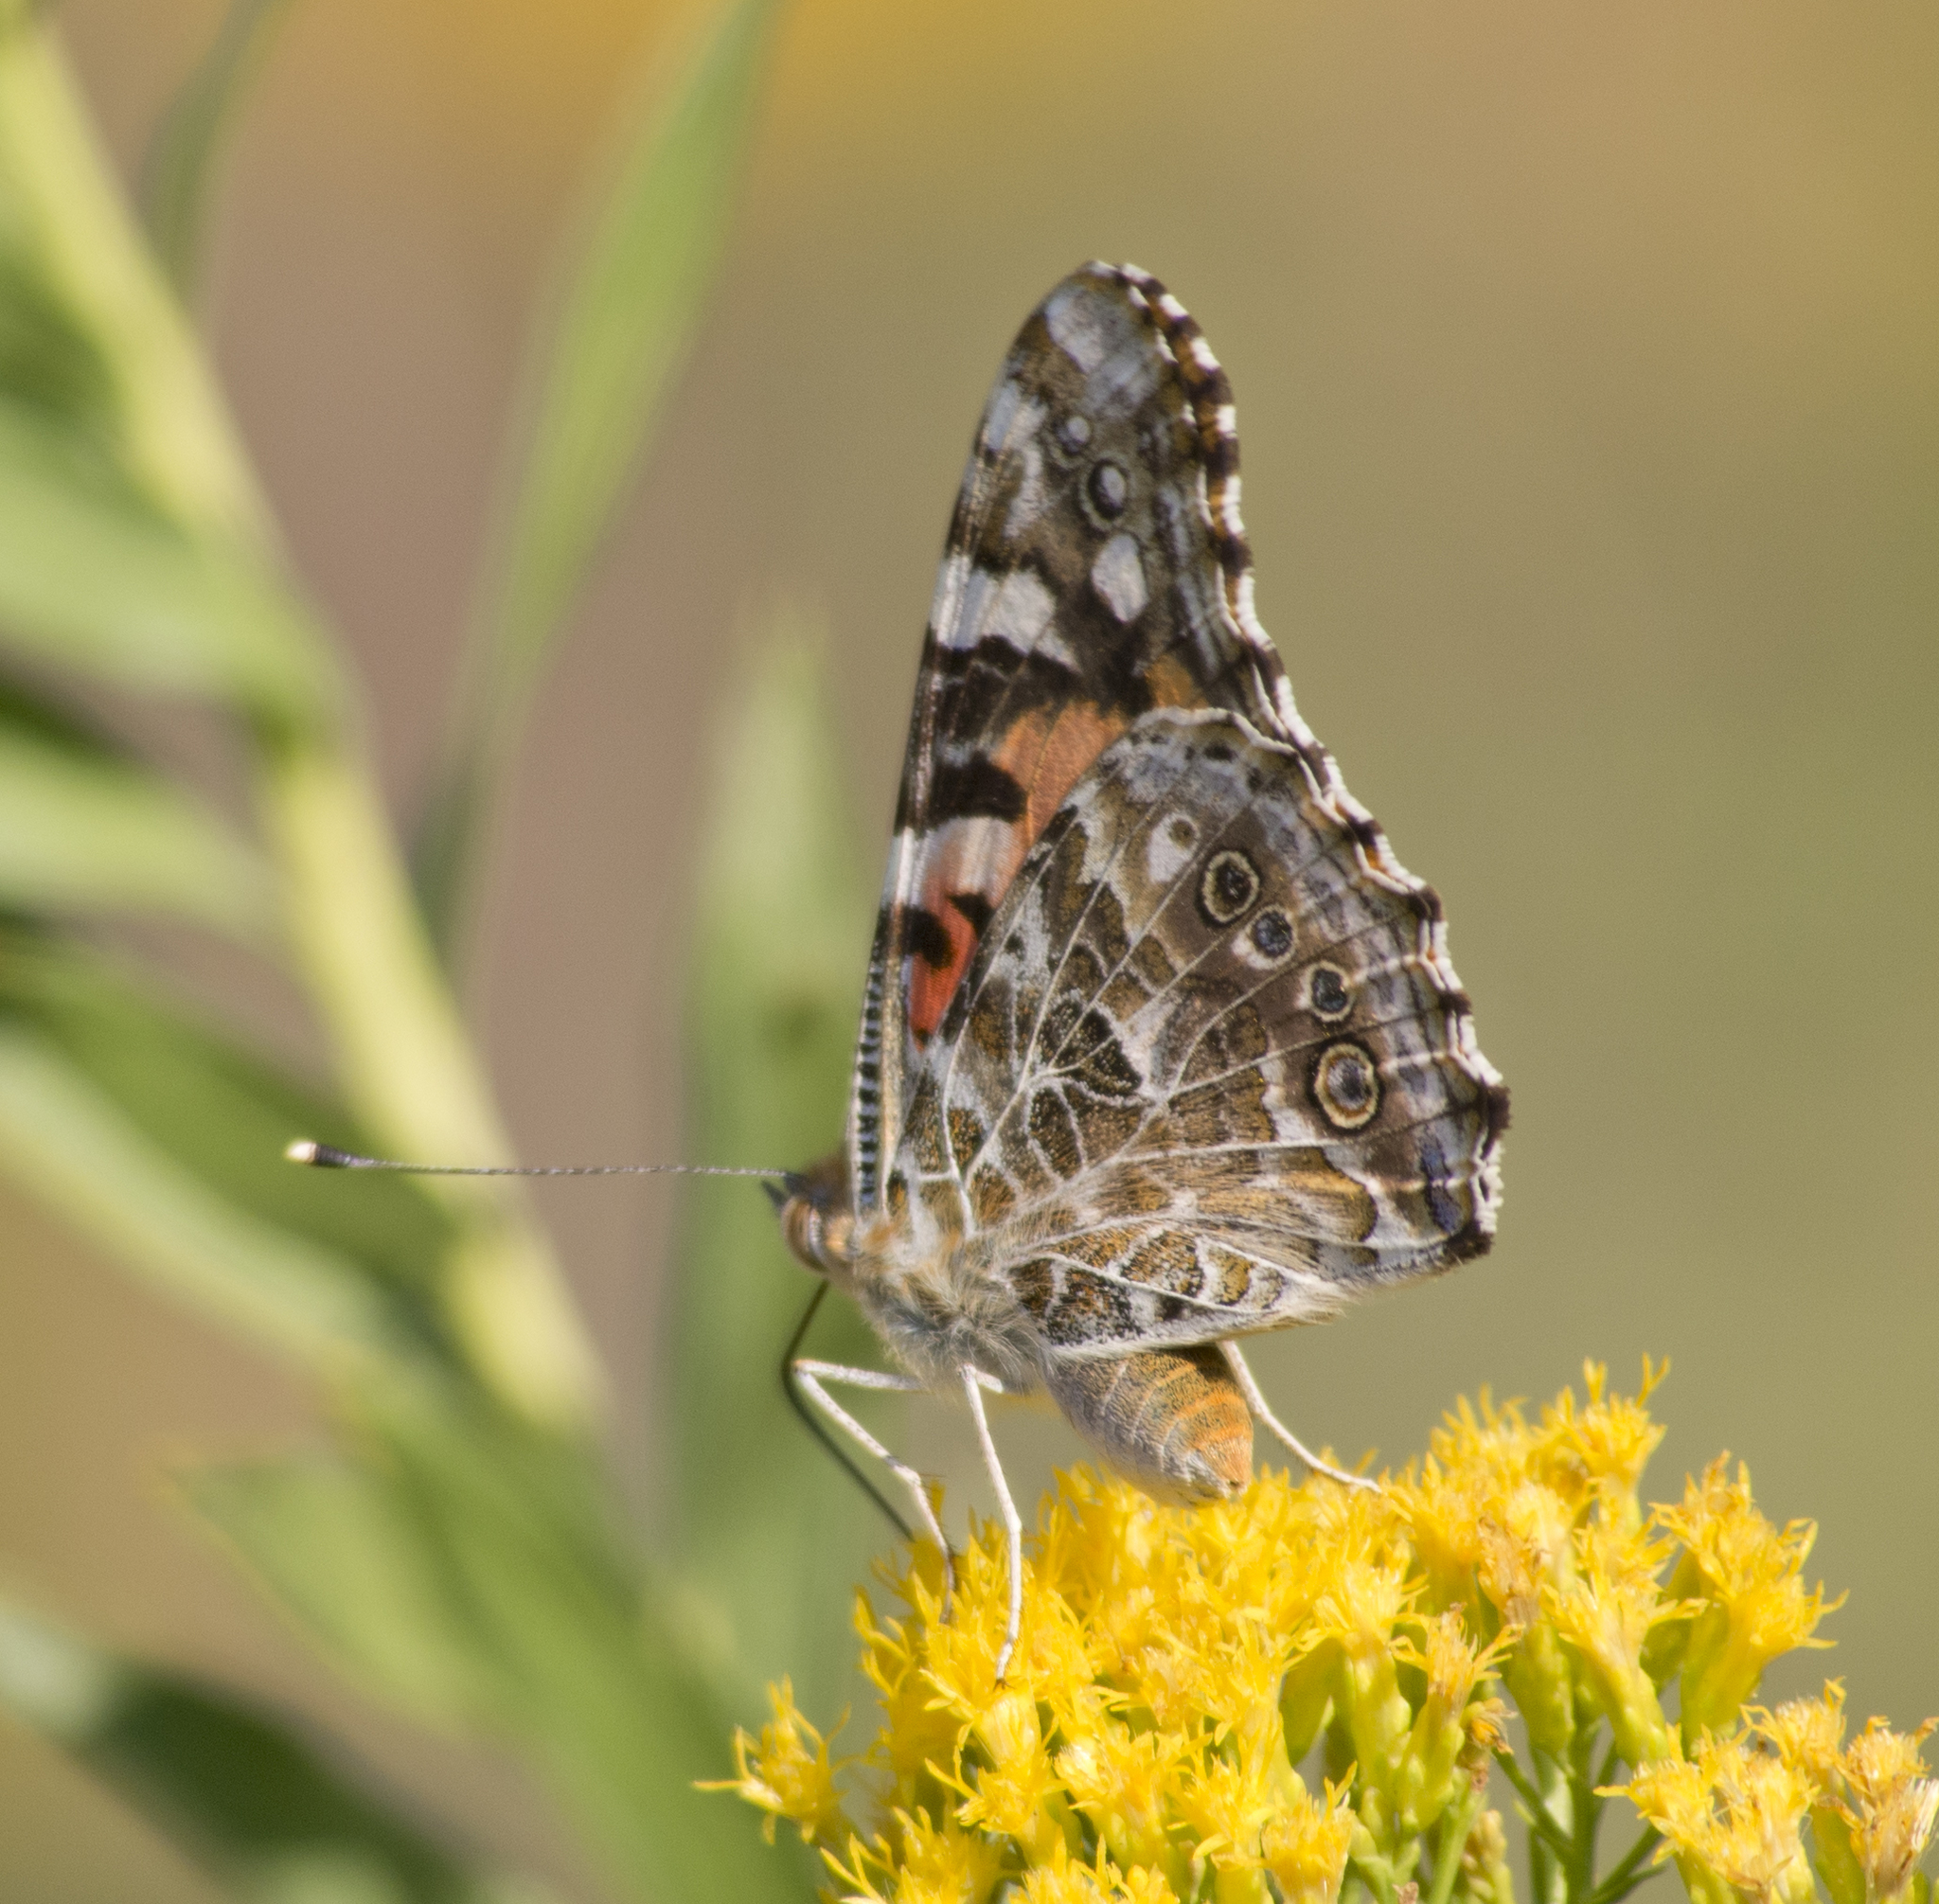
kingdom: Animalia
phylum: Arthropoda
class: Insecta
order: Lepidoptera
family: Nymphalidae
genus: Vanessa
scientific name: Vanessa cardui
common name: Painted lady
